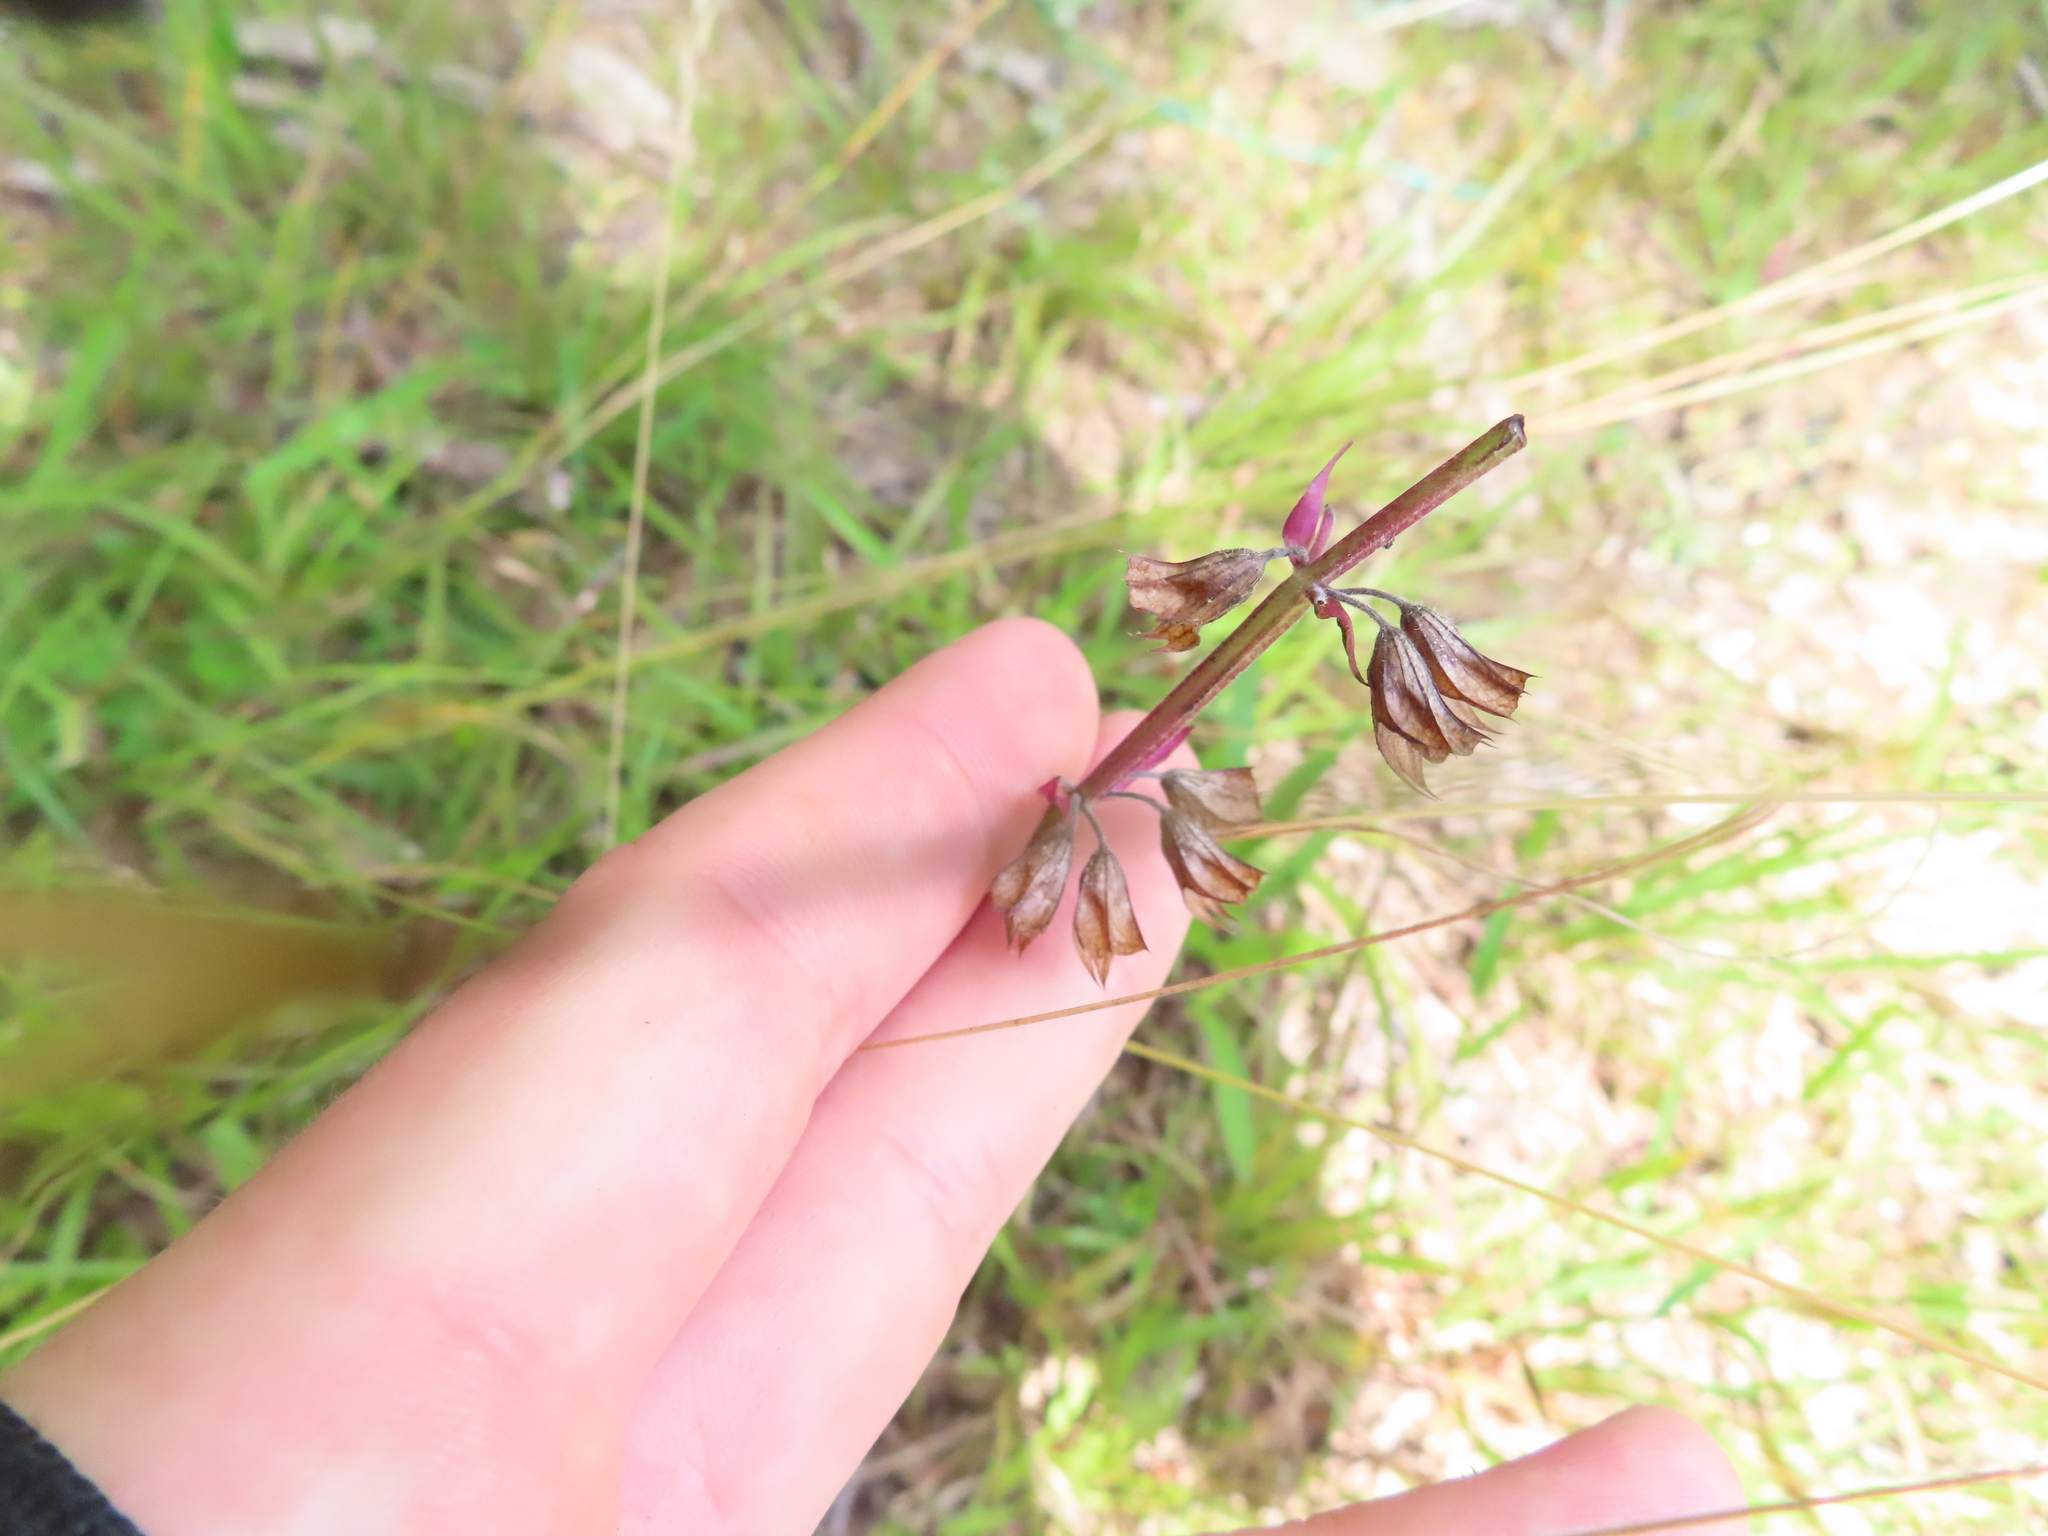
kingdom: Plantae
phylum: Tracheophyta
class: Magnoliopsida
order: Lamiales
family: Lamiaceae
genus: Salvia
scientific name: Salvia lyrata
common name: Cancerweed
